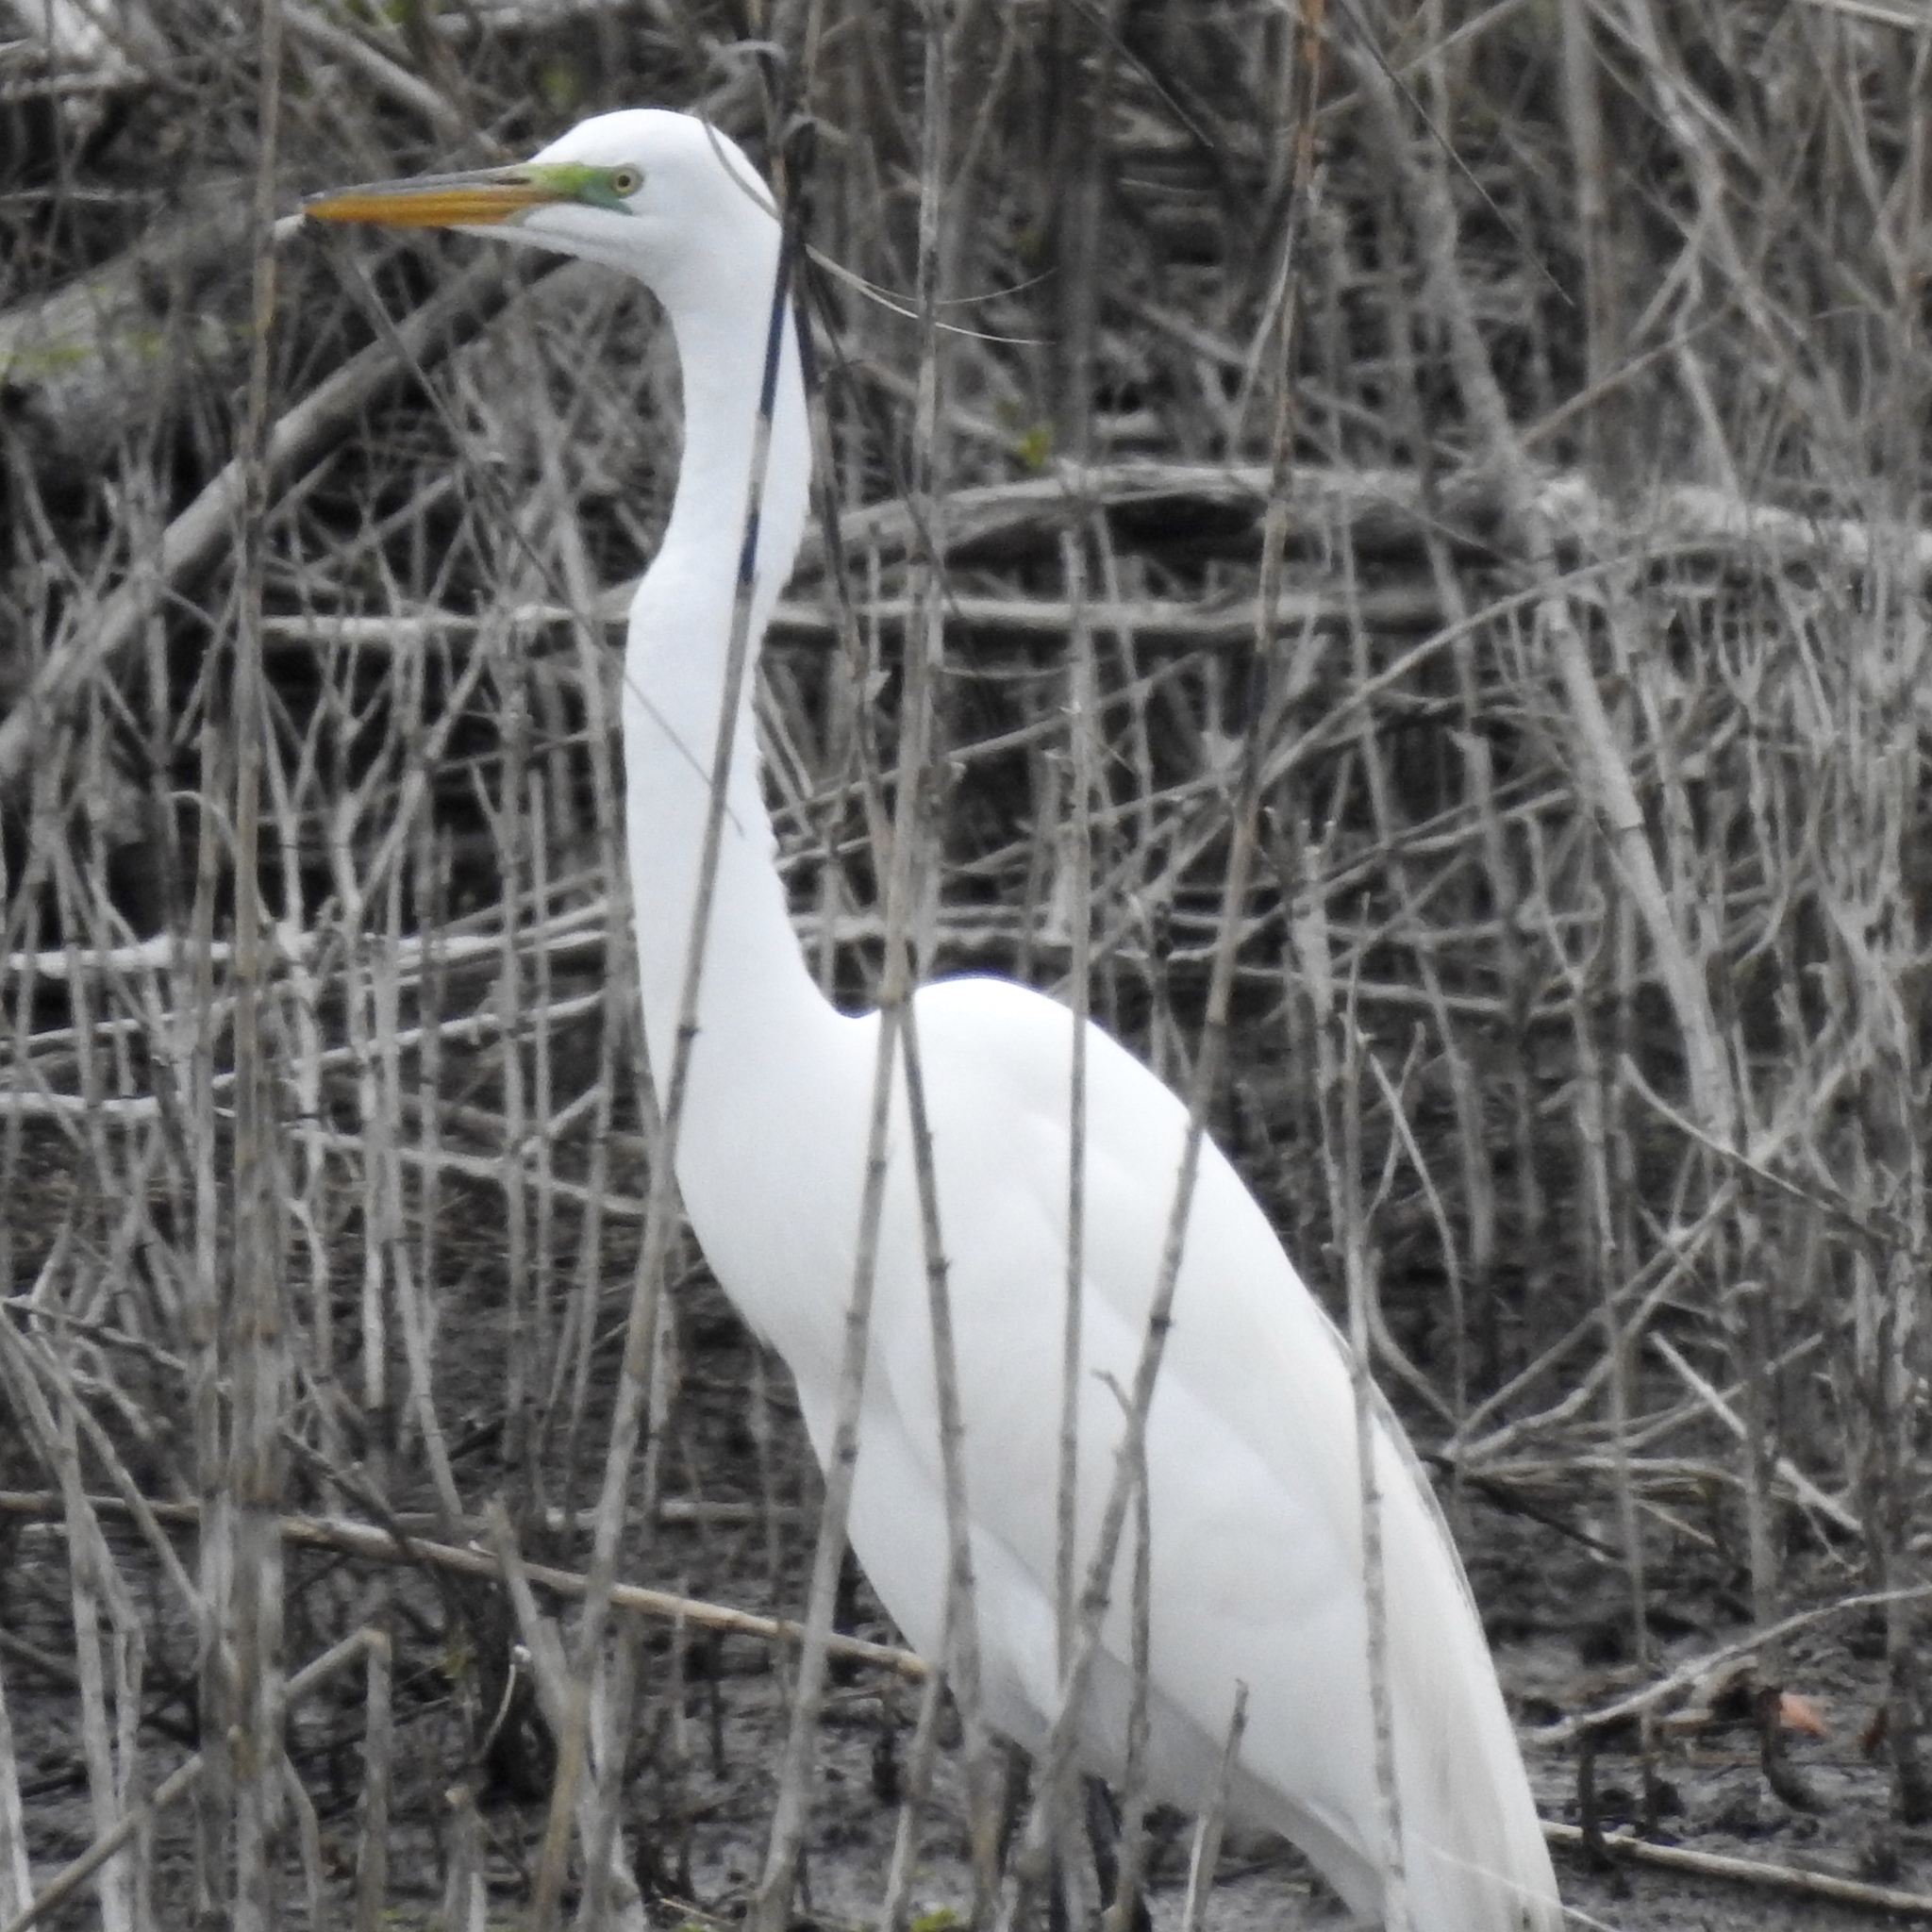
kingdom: Animalia
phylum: Chordata
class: Aves
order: Pelecaniformes
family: Ardeidae
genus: Ardea
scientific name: Ardea alba
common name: Great egret
